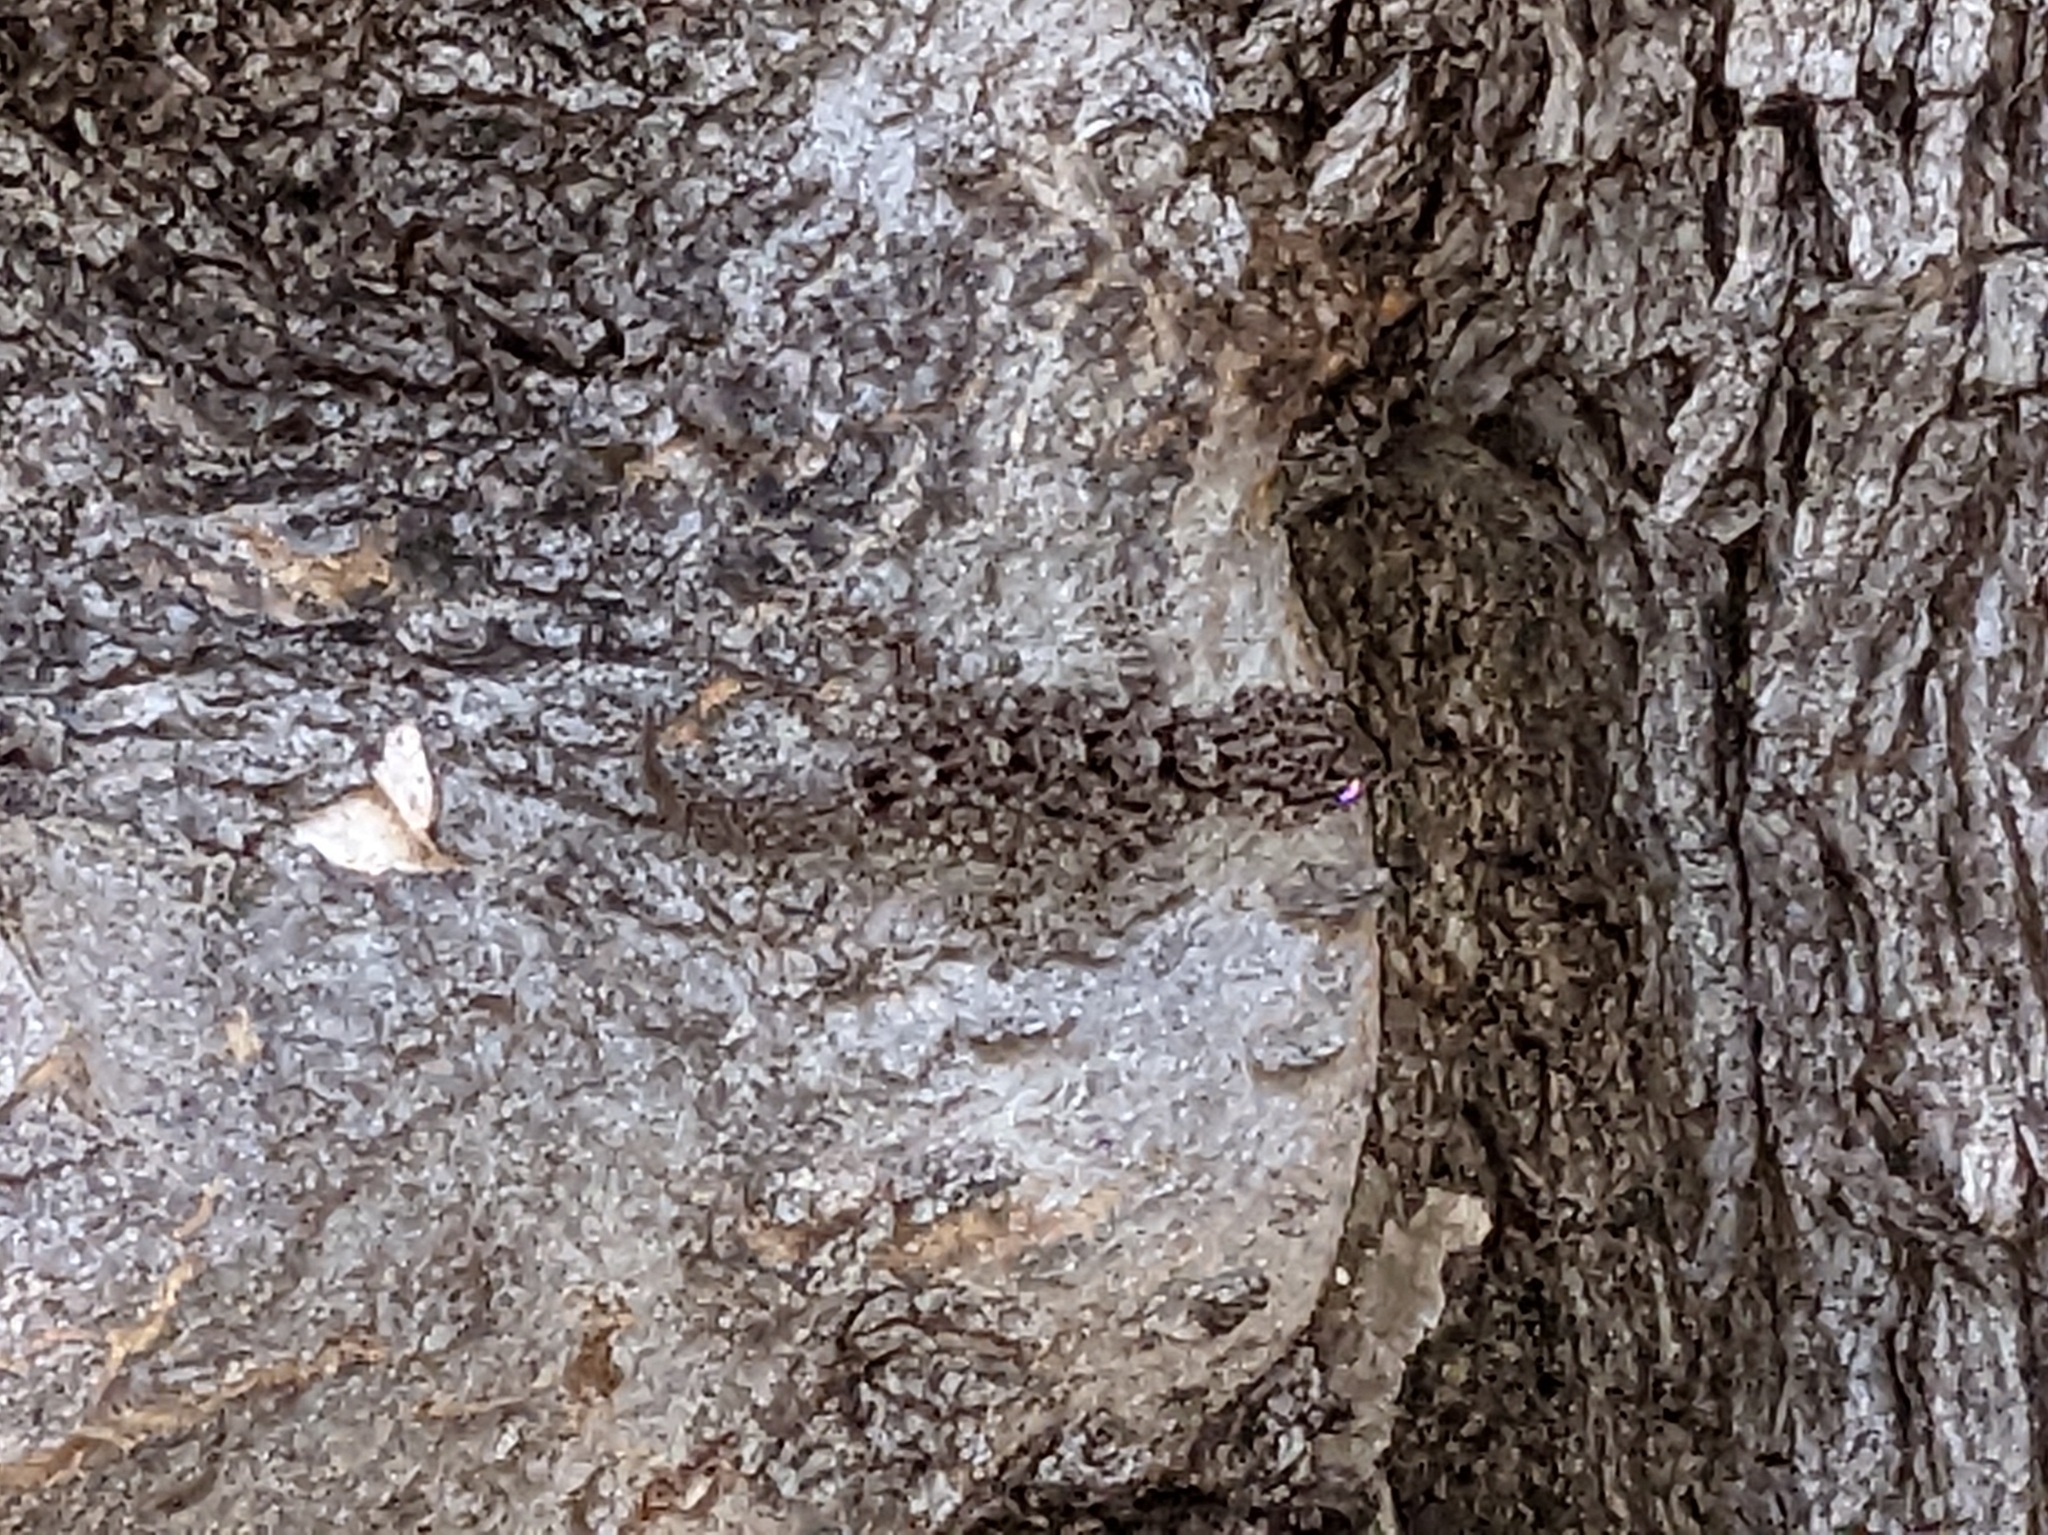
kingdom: Animalia
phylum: Chordata
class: Squamata
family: Phyllodactylidae
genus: Tarentola
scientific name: Tarentola mauritanica
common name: Moorish gecko
